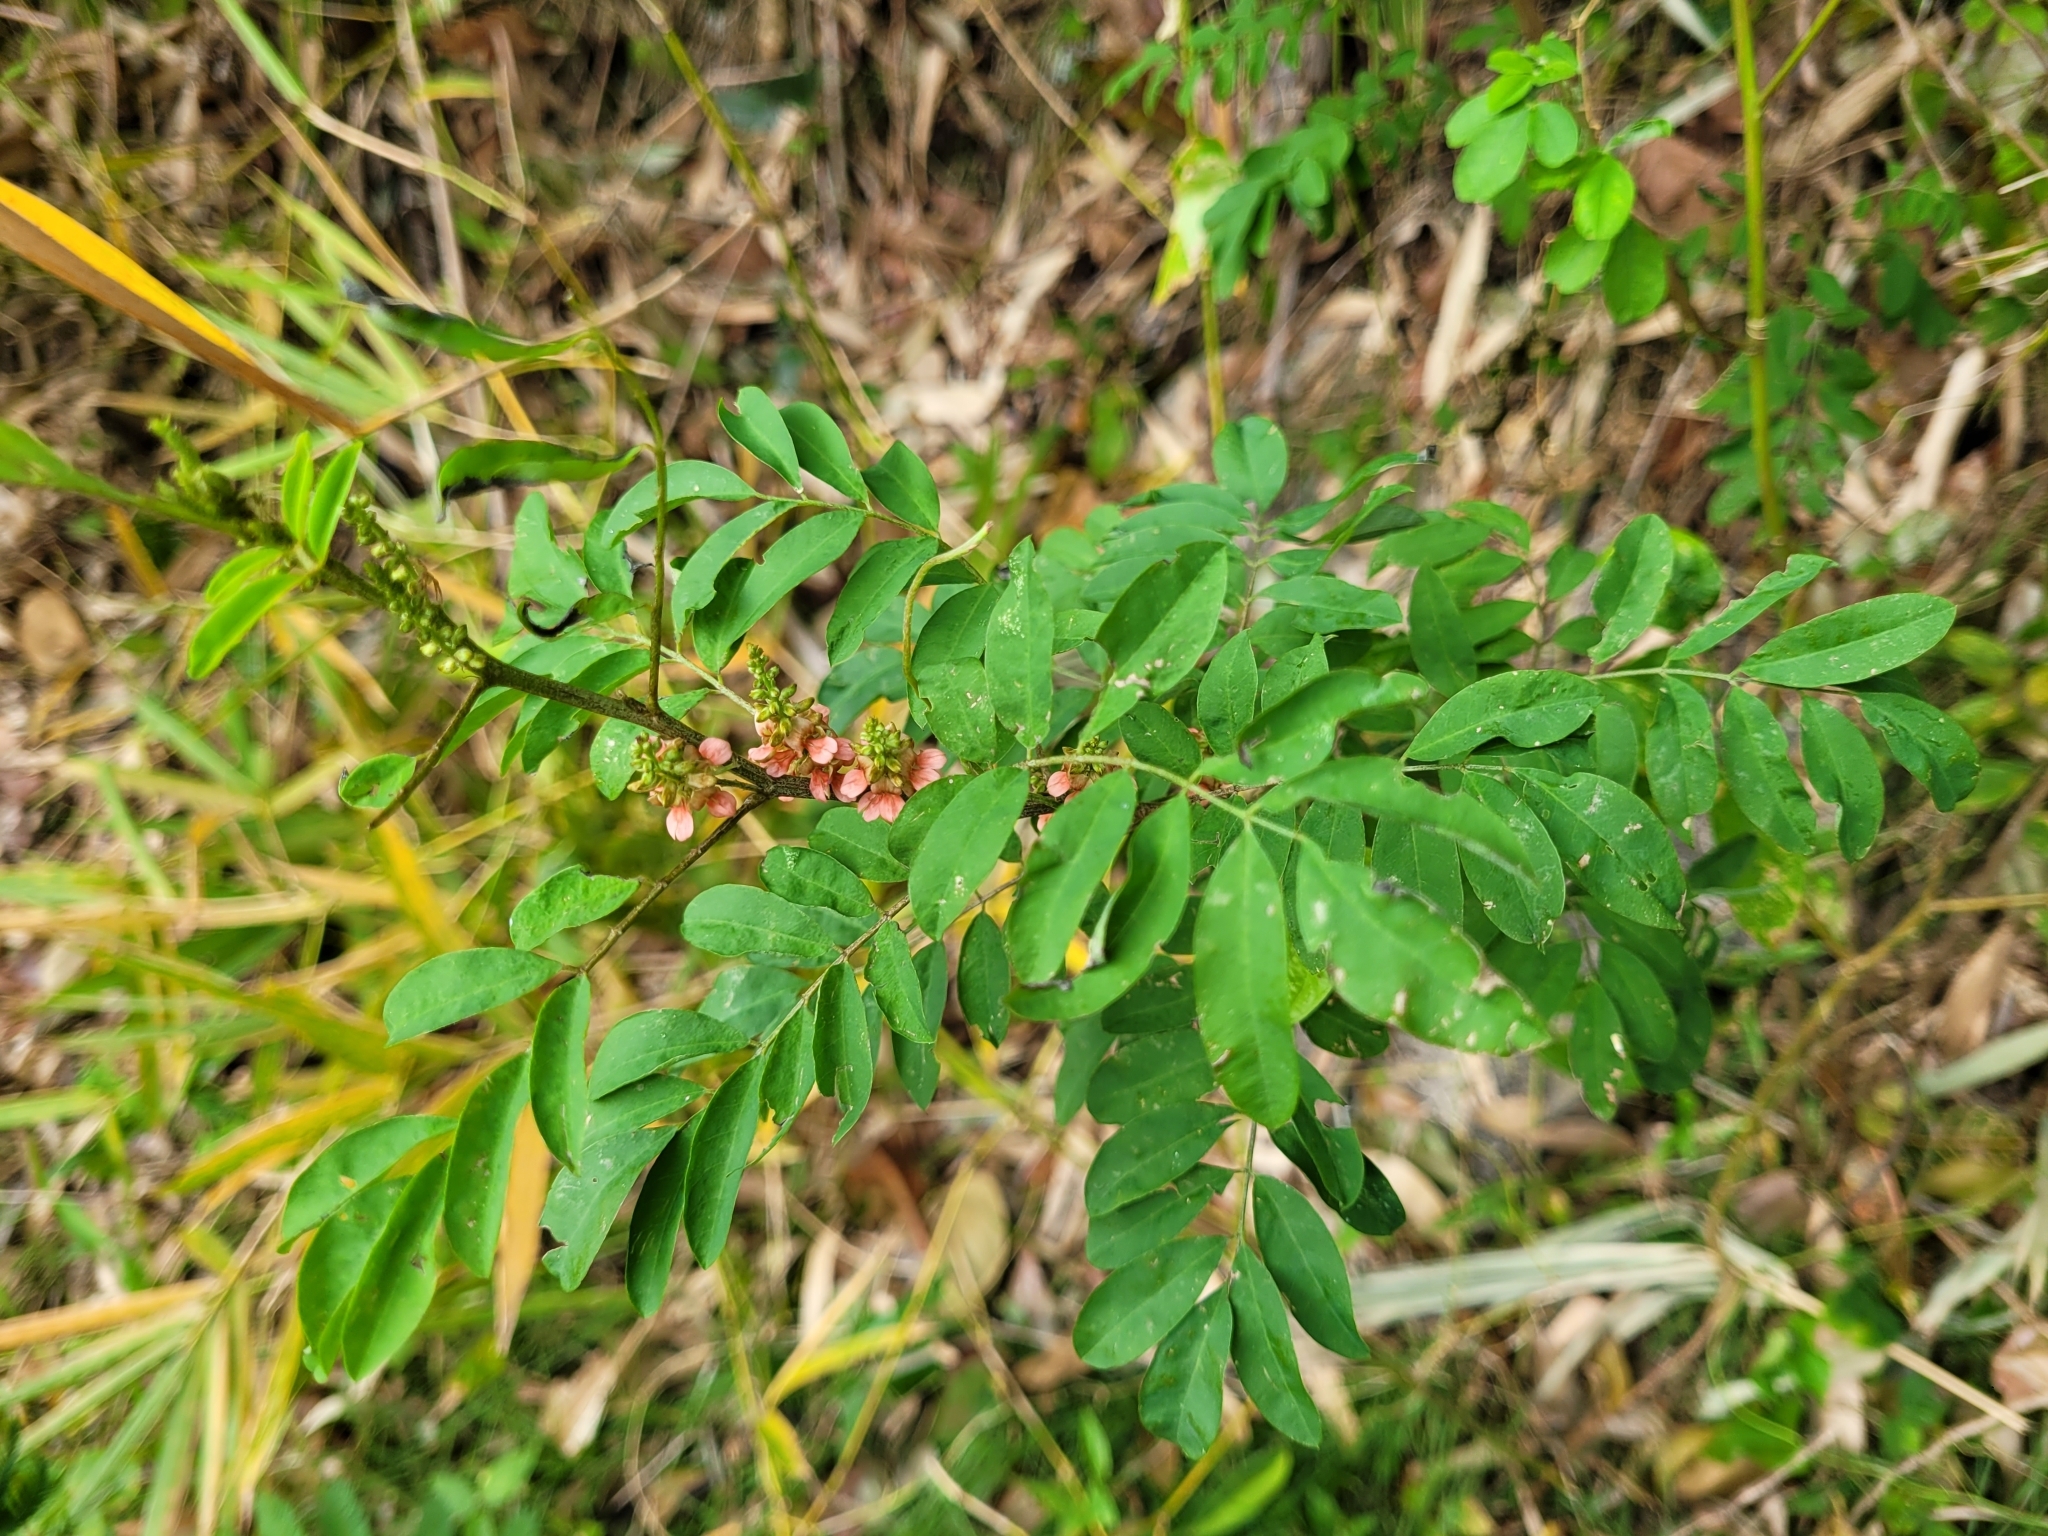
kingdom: Plantae
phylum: Tracheophyta
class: Magnoliopsida
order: Fabales
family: Fabaceae
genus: Indigofera
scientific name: Indigofera suffruticosa
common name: Anil de pasto
